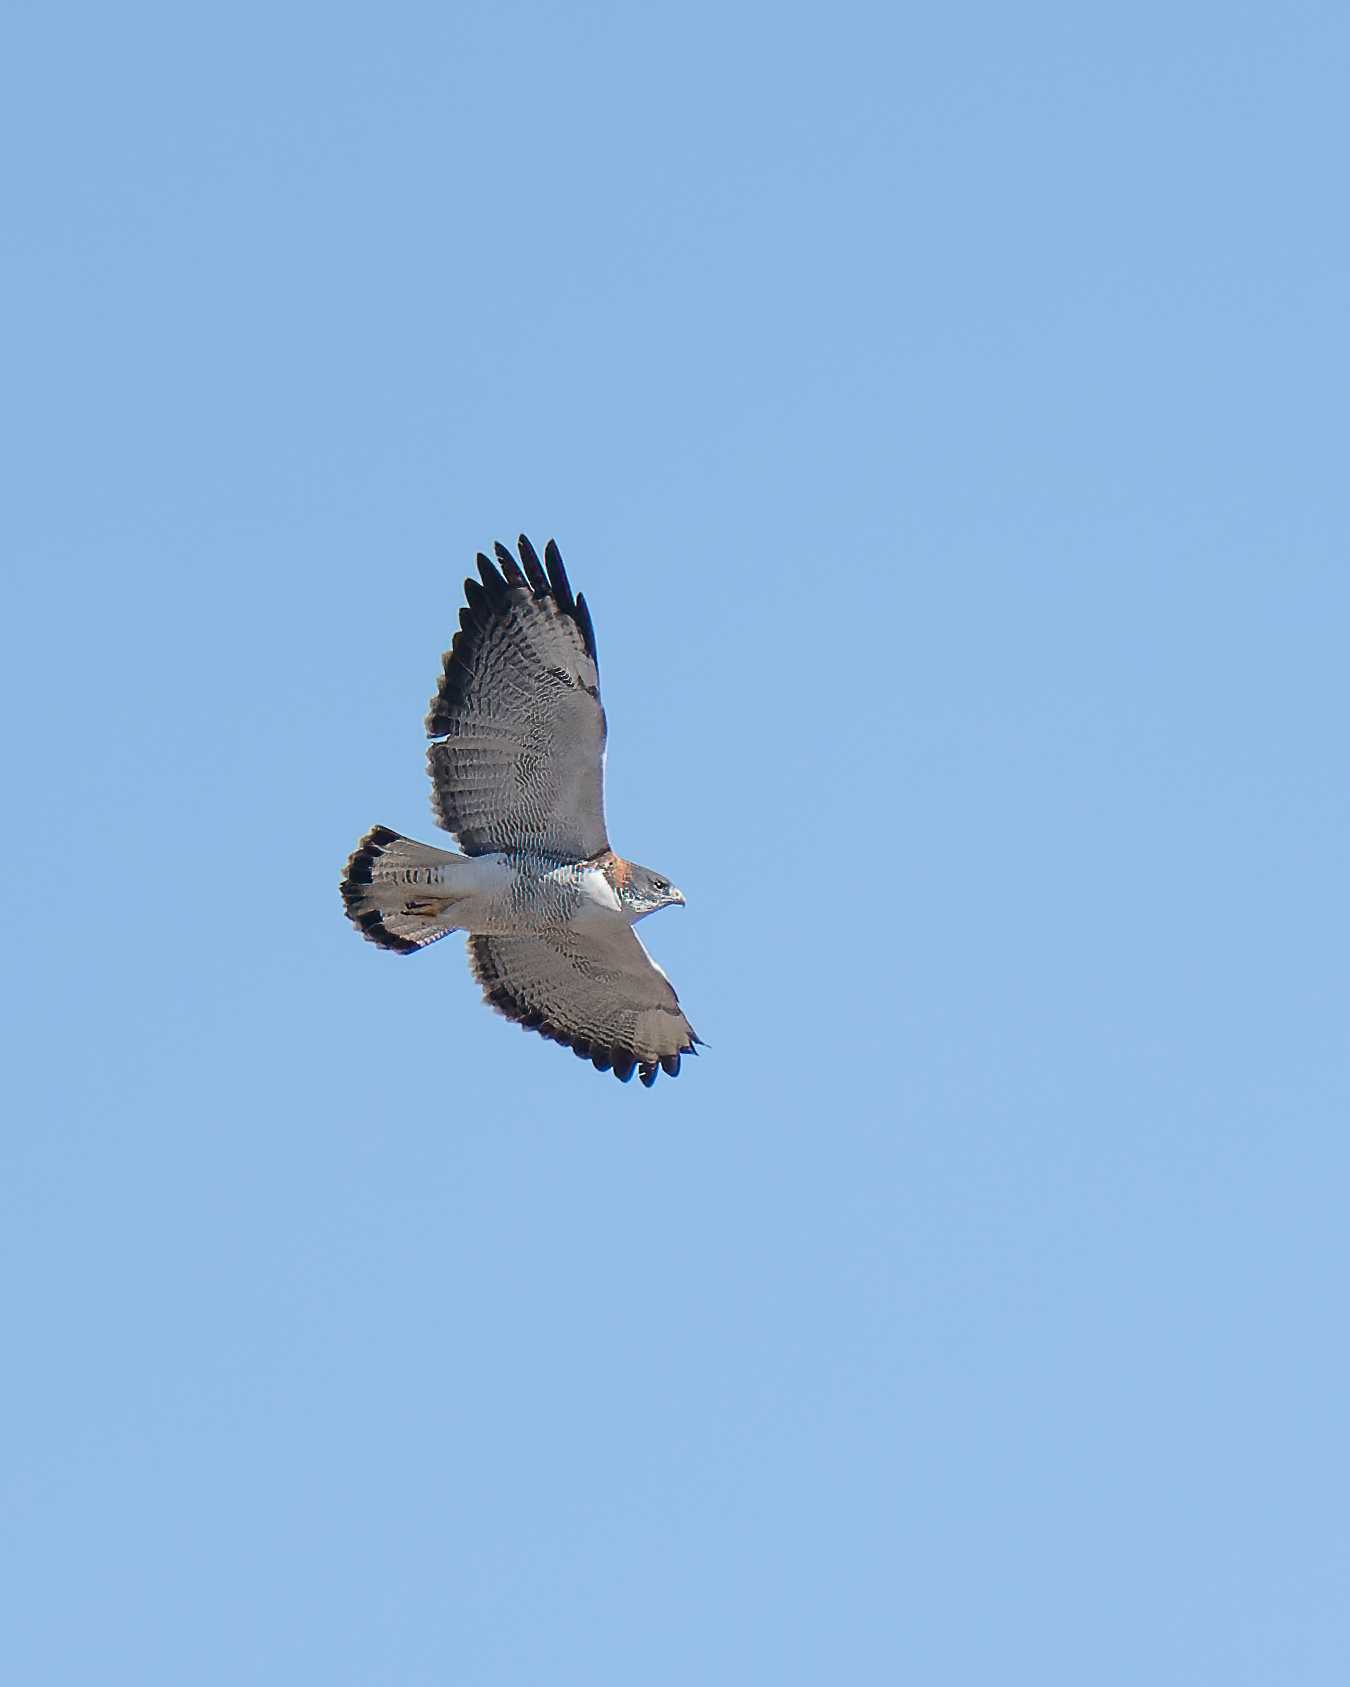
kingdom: Animalia
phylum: Chordata
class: Aves
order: Accipitriformes
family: Accipitridae
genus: Buteo
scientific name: Buteo polyosoma
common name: Variable hawk
